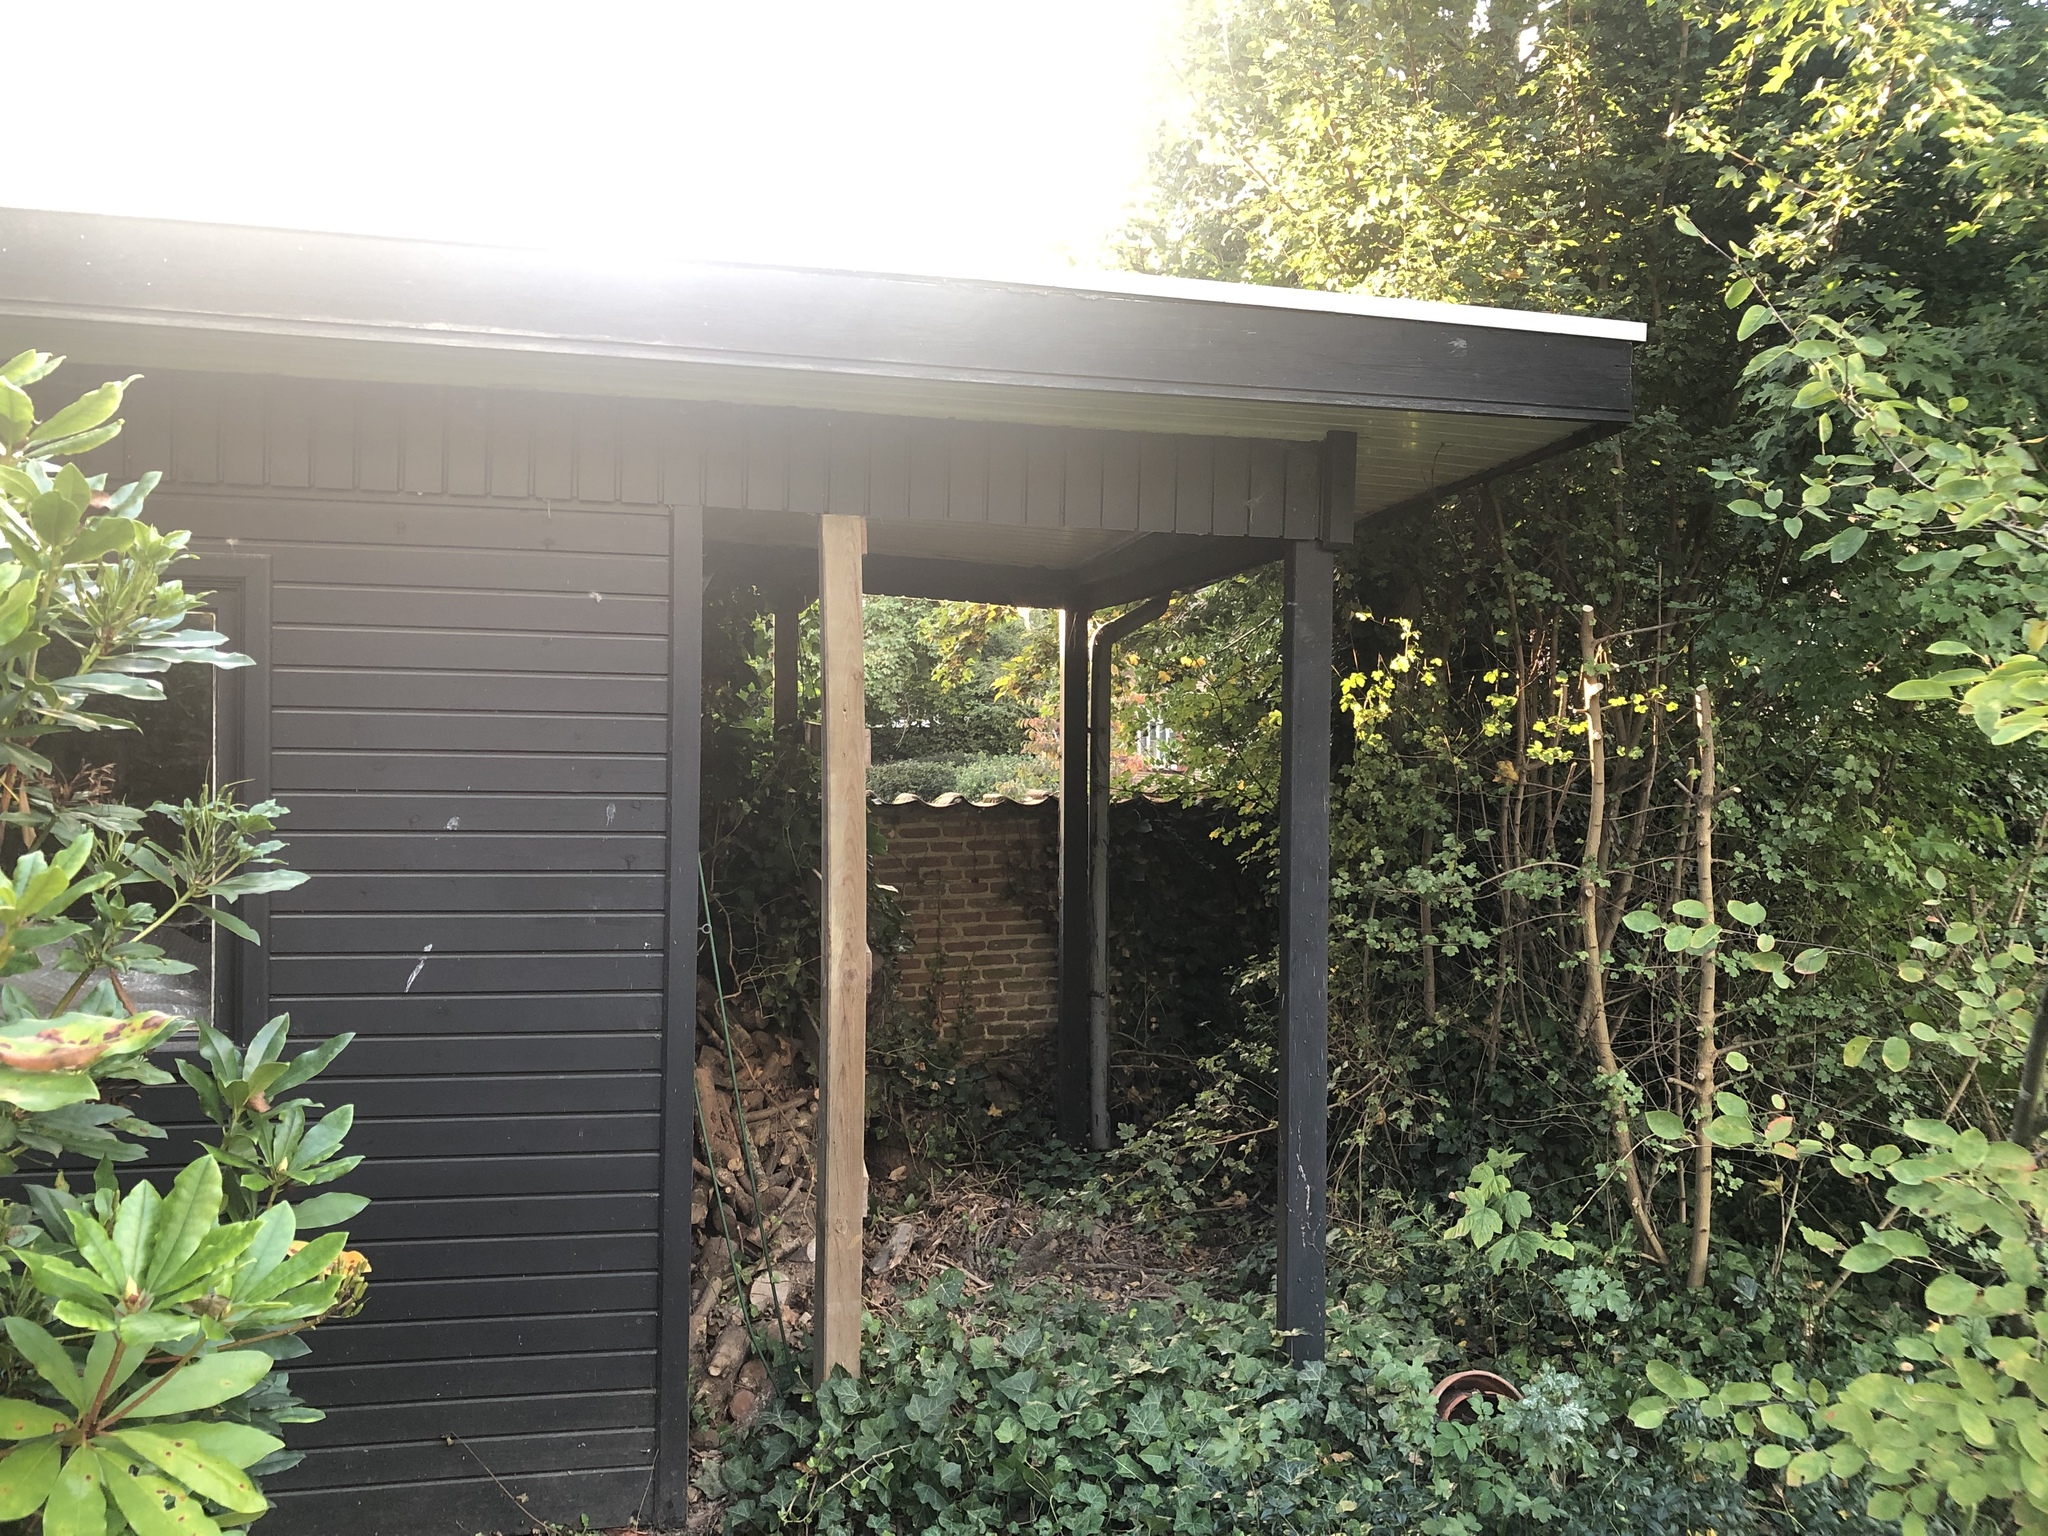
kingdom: Animalia
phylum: Arthropoda
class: Insecta
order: Hymenoptera
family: Vespidae
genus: Vespa
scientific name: Vespa crabro
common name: Hornet
